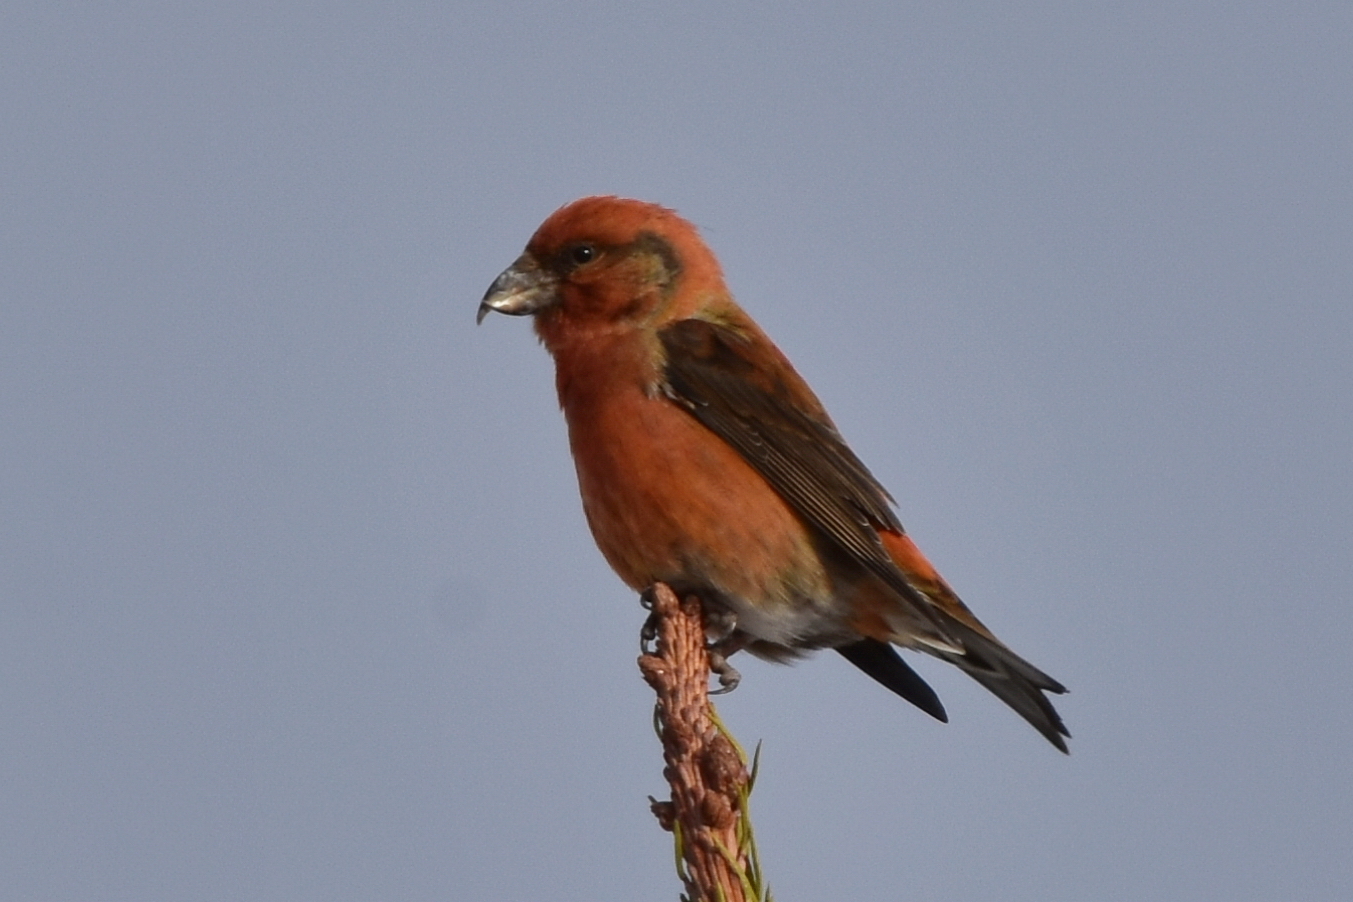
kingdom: Animalia
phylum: Chordata
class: Aves
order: Passeriformes
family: Fringillidae
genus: Loxia
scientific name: Loxia curvirostra
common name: Red crossbill
